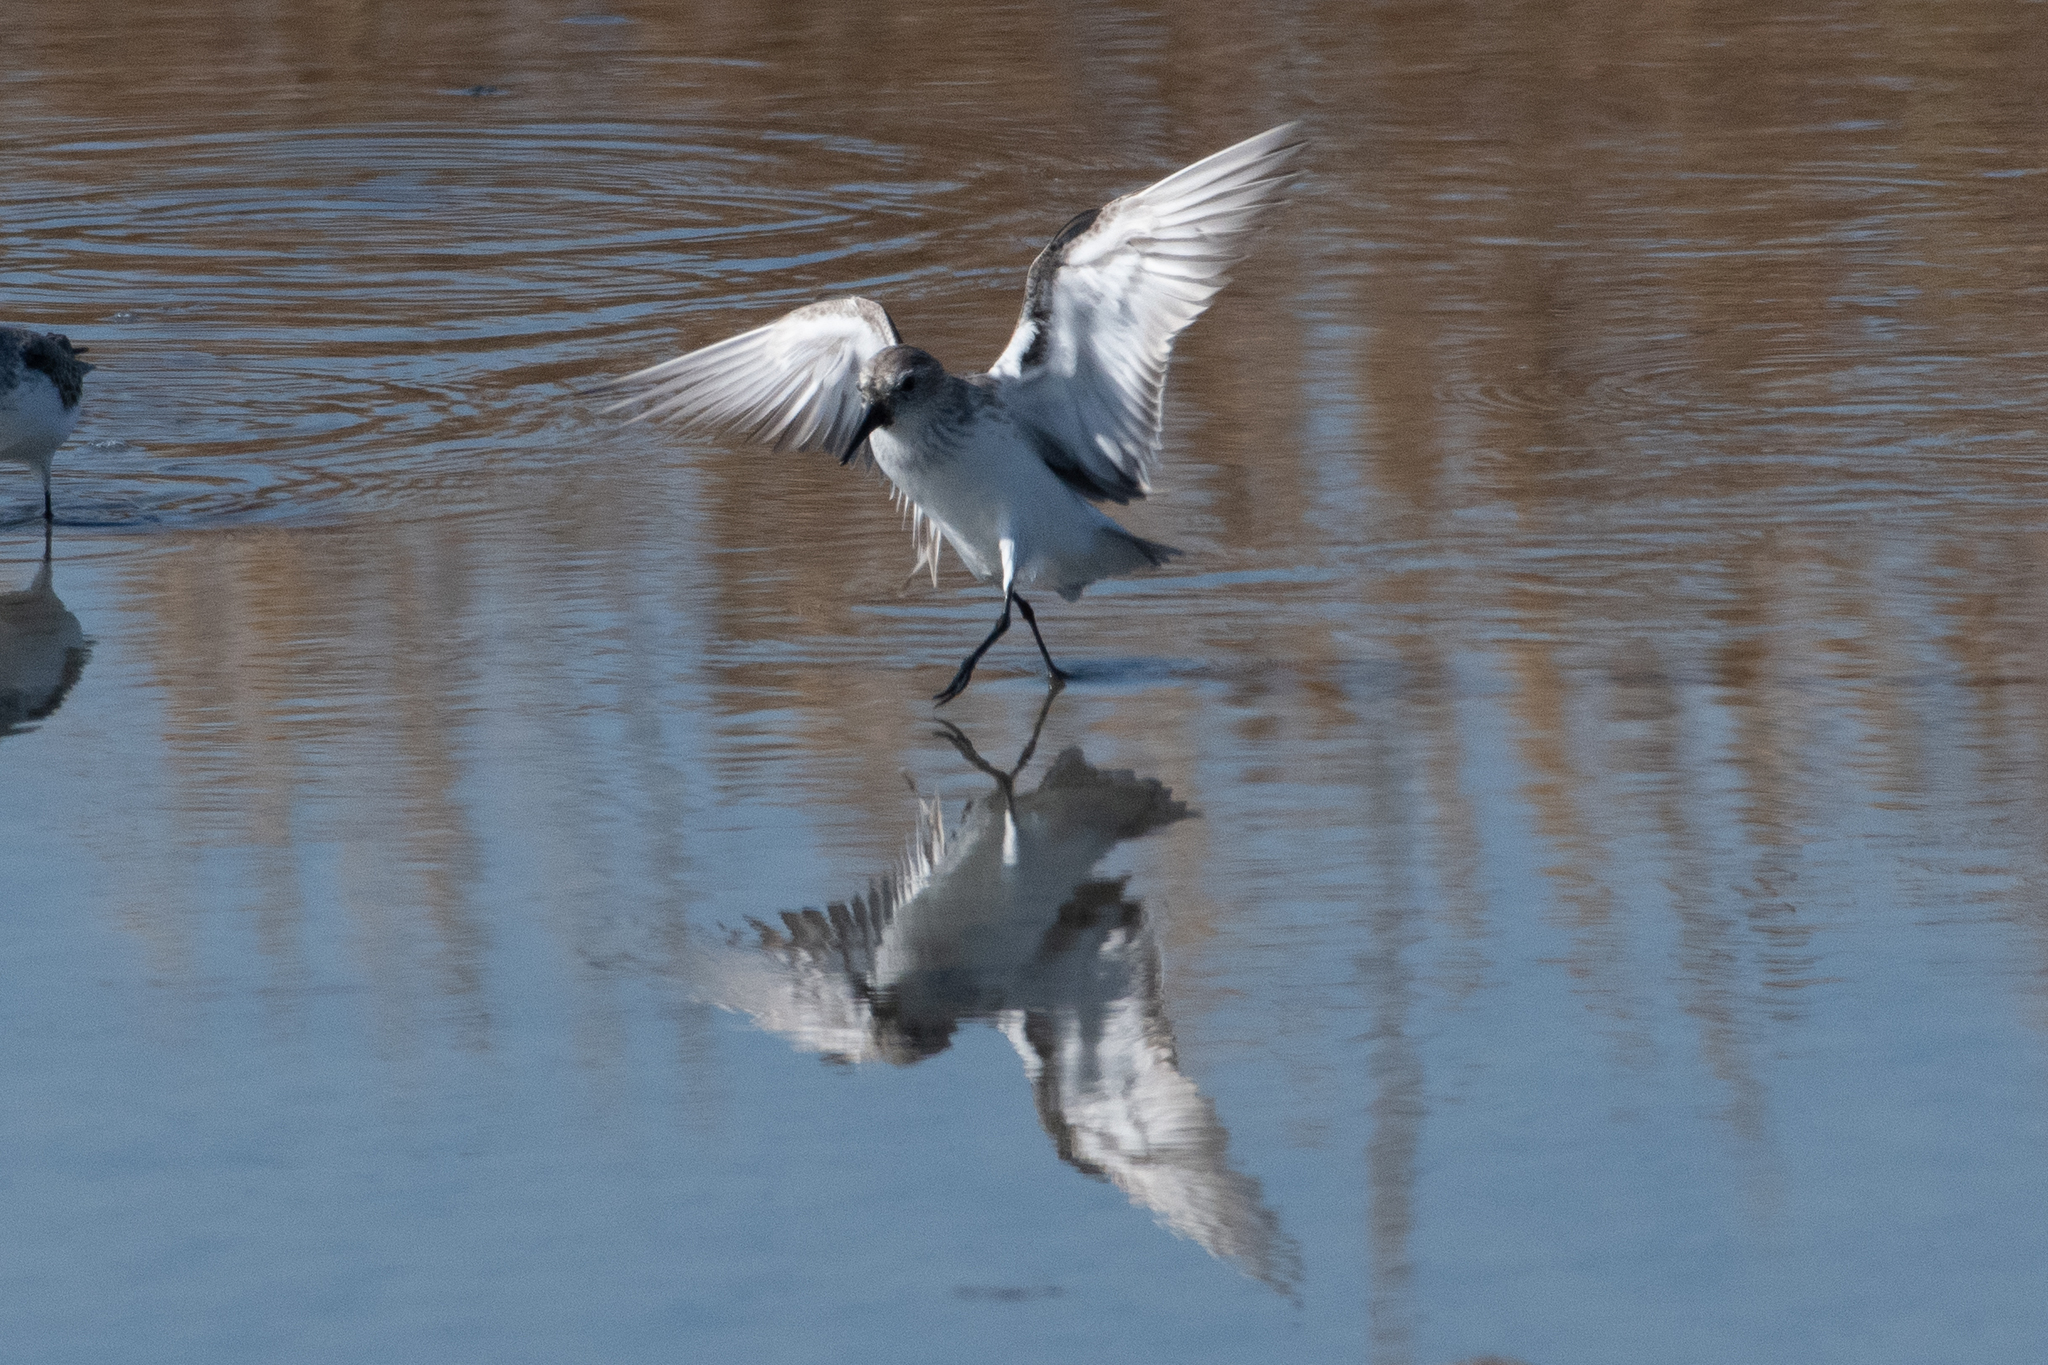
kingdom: Animalia
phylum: Chordata
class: Aves
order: Charadriiformes
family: Scolopacidae
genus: Calidris
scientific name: Calidris mauri
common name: Western sandpiper
